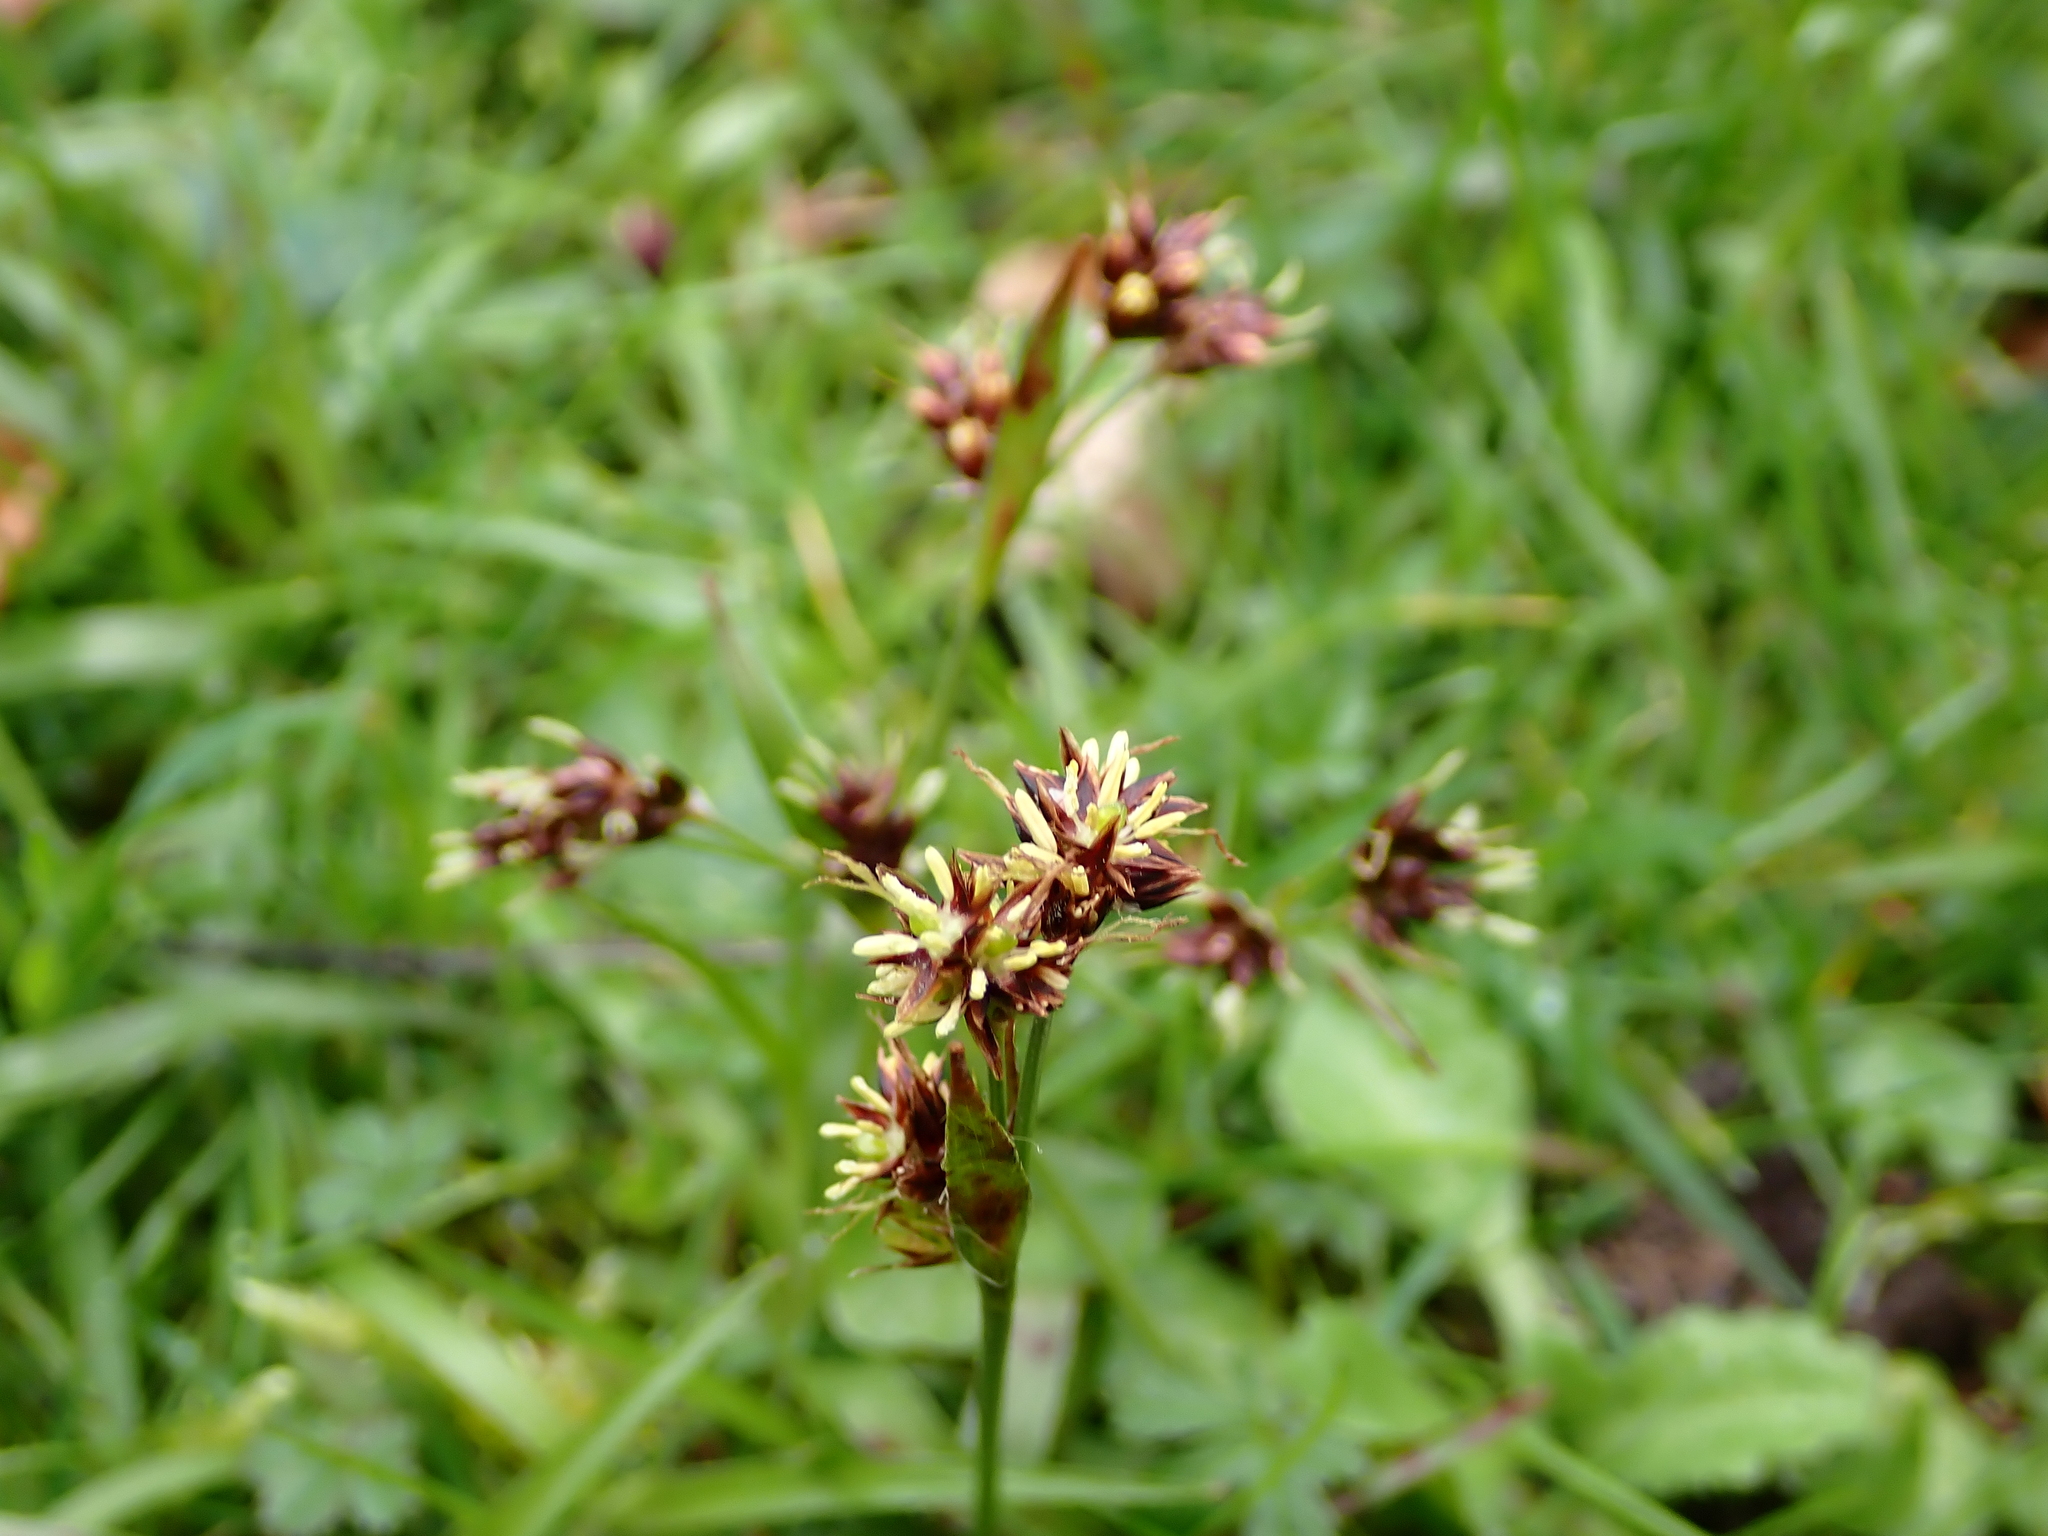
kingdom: Plantae
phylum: Tracheophyta
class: Liliopsida
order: Poales
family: Juncaceae
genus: Luzula
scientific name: Luzula campestris
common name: Field wood-rush
